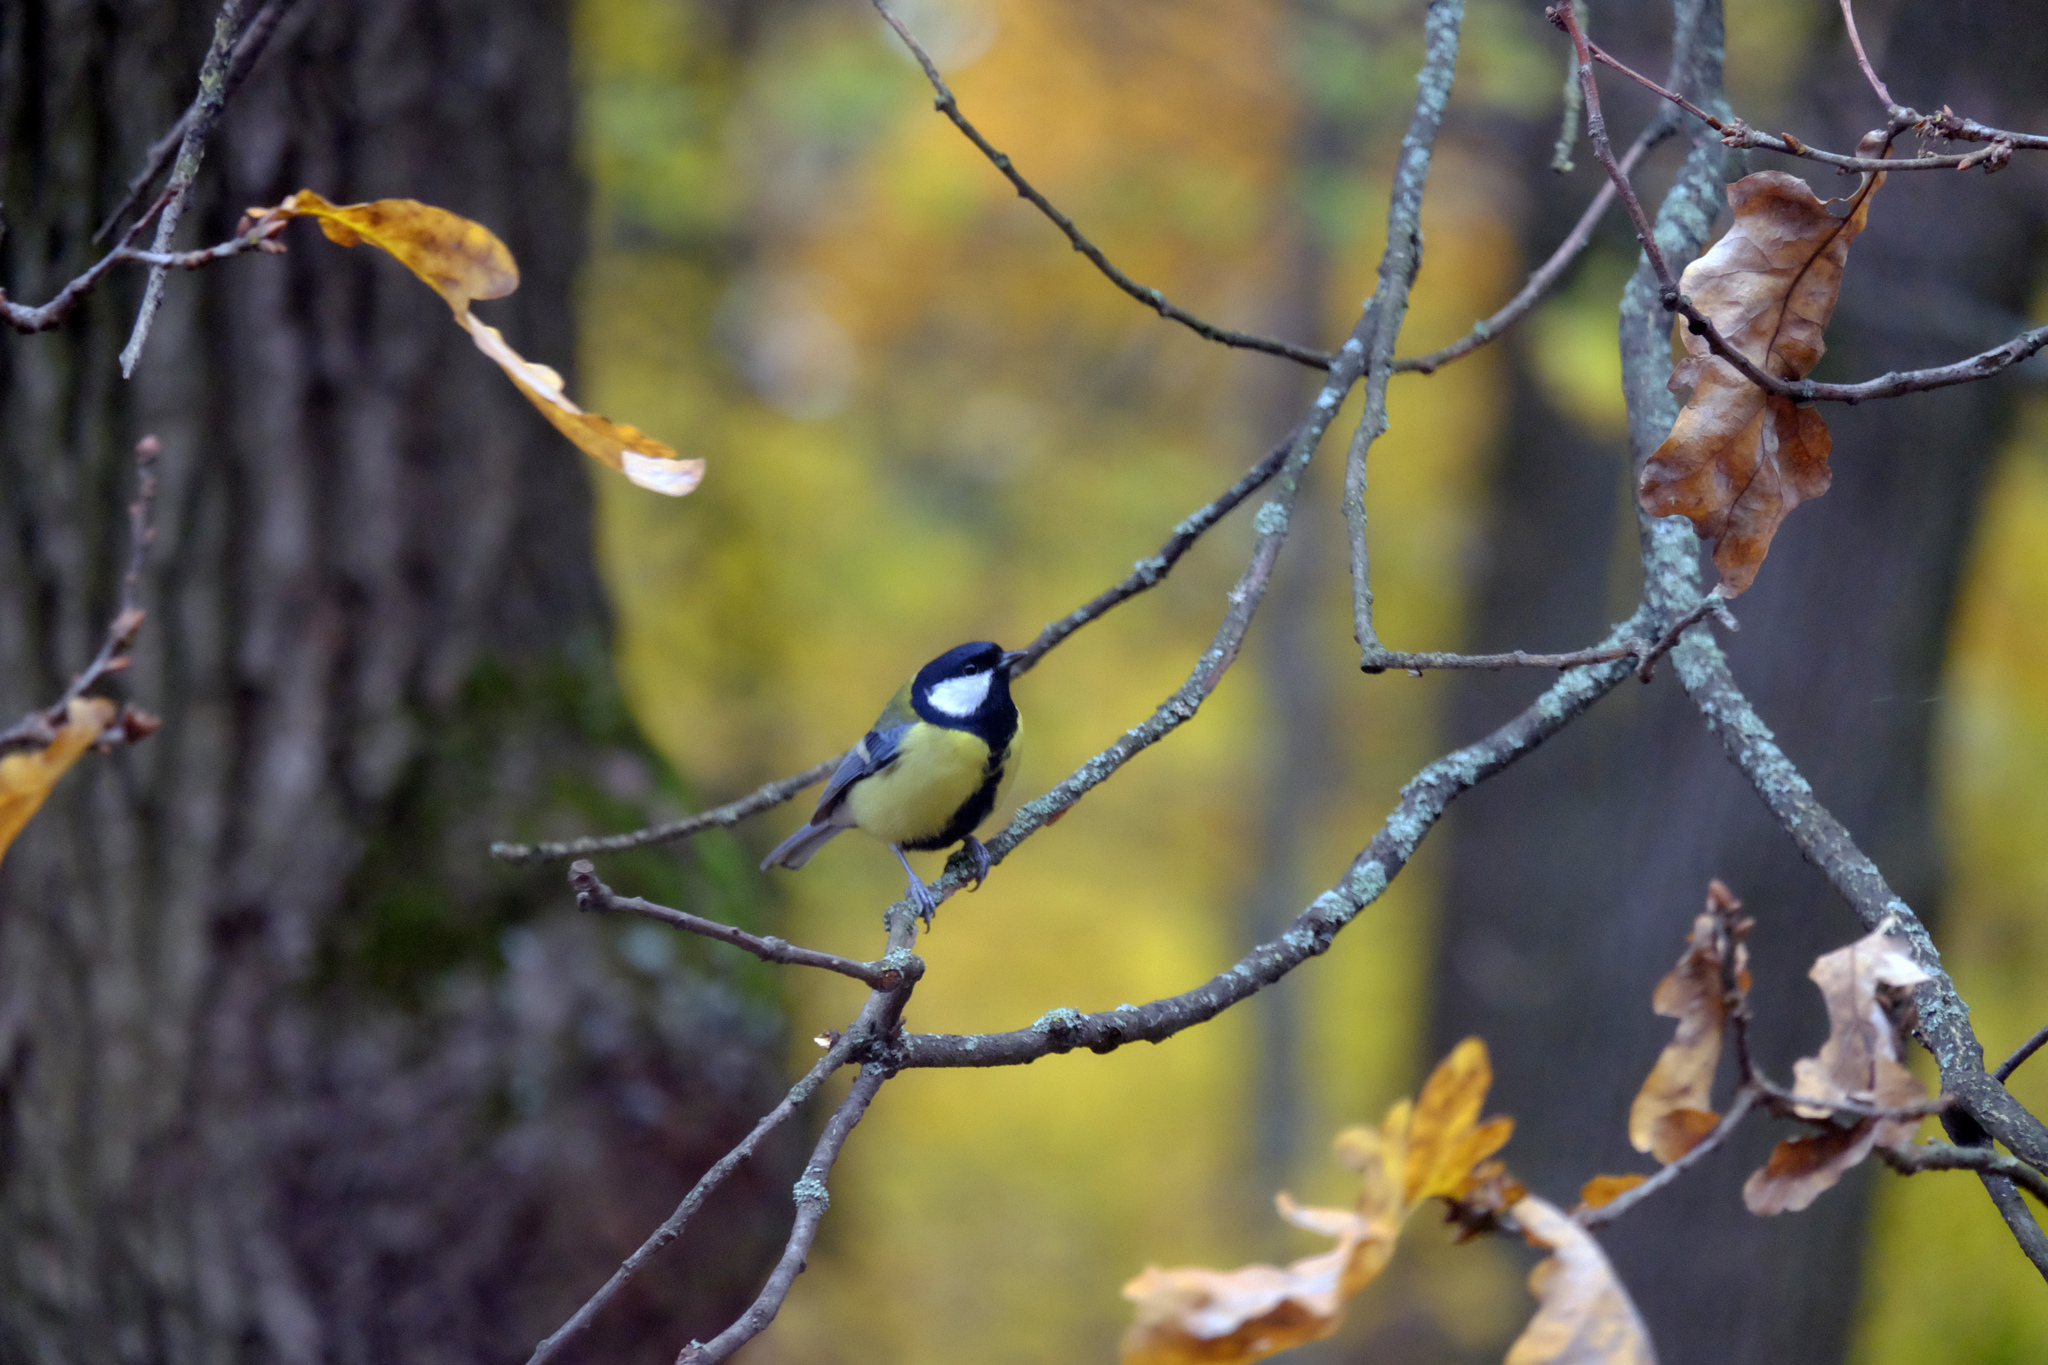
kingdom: Animalia
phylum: Chordata
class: Aves
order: Passeriformes
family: Paridae
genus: Parus
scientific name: Parus major
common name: Great tit
